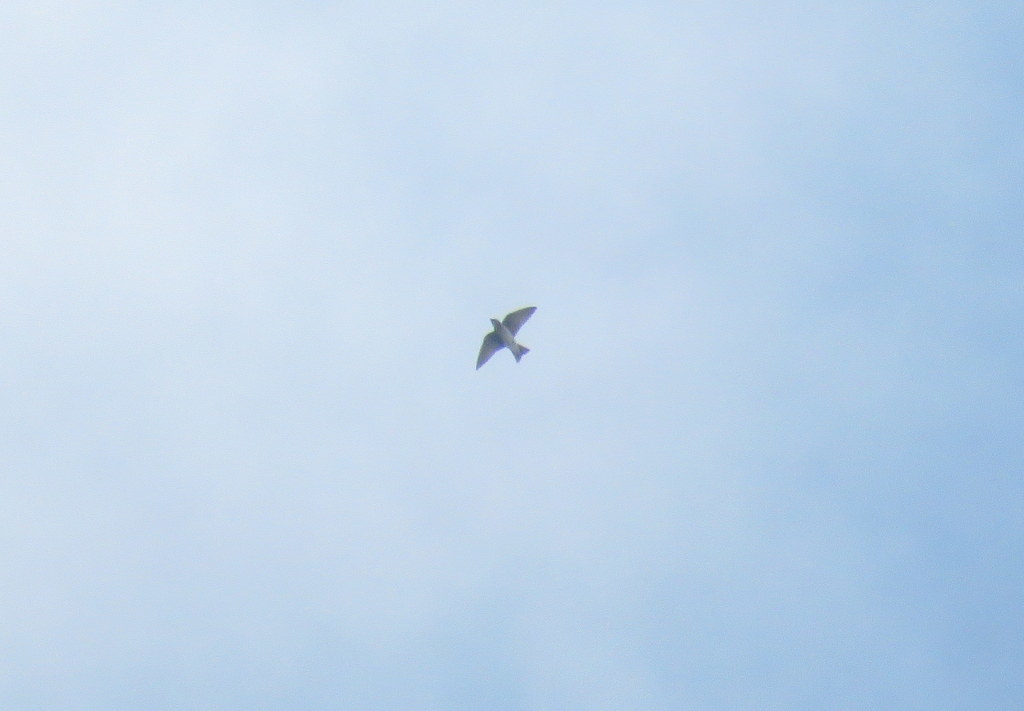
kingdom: Animalia
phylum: Chordata
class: Aves
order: Passeriformes
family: Hirundinidae
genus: Progne
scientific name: Progne chalybea
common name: Grey-breasted martin
